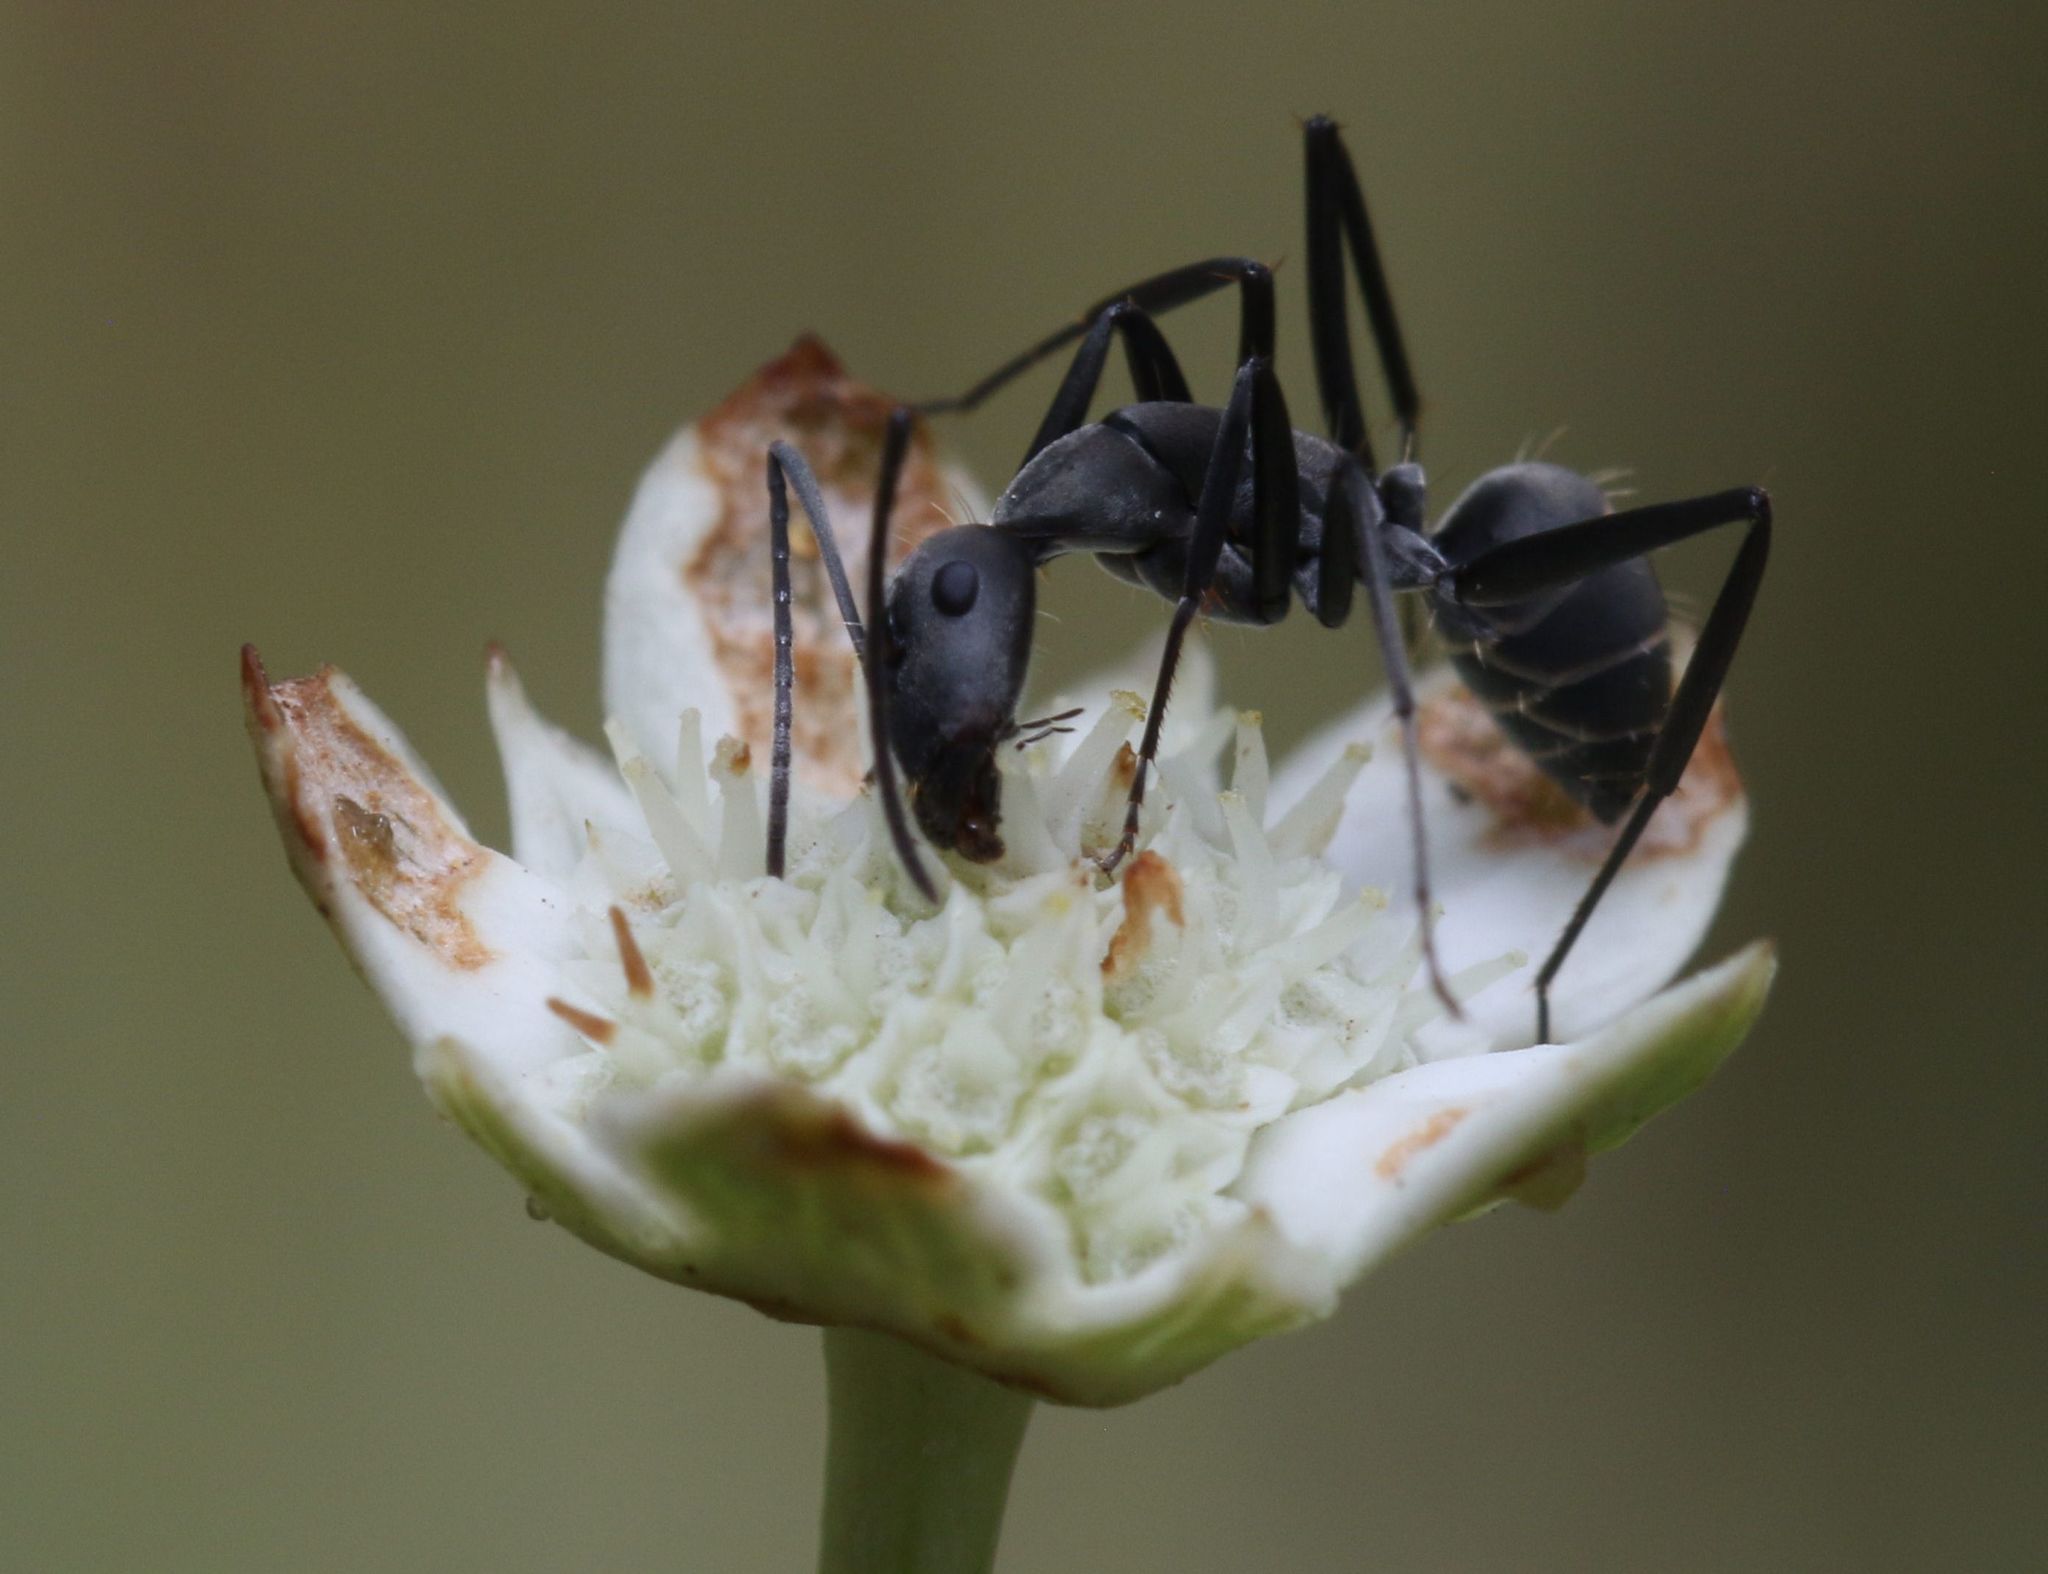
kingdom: Plantae
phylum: Tracheophyta
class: Magnoliopsida
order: Apiales
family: Apiaceae
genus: Alepidea
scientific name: Alepidea natalensis
